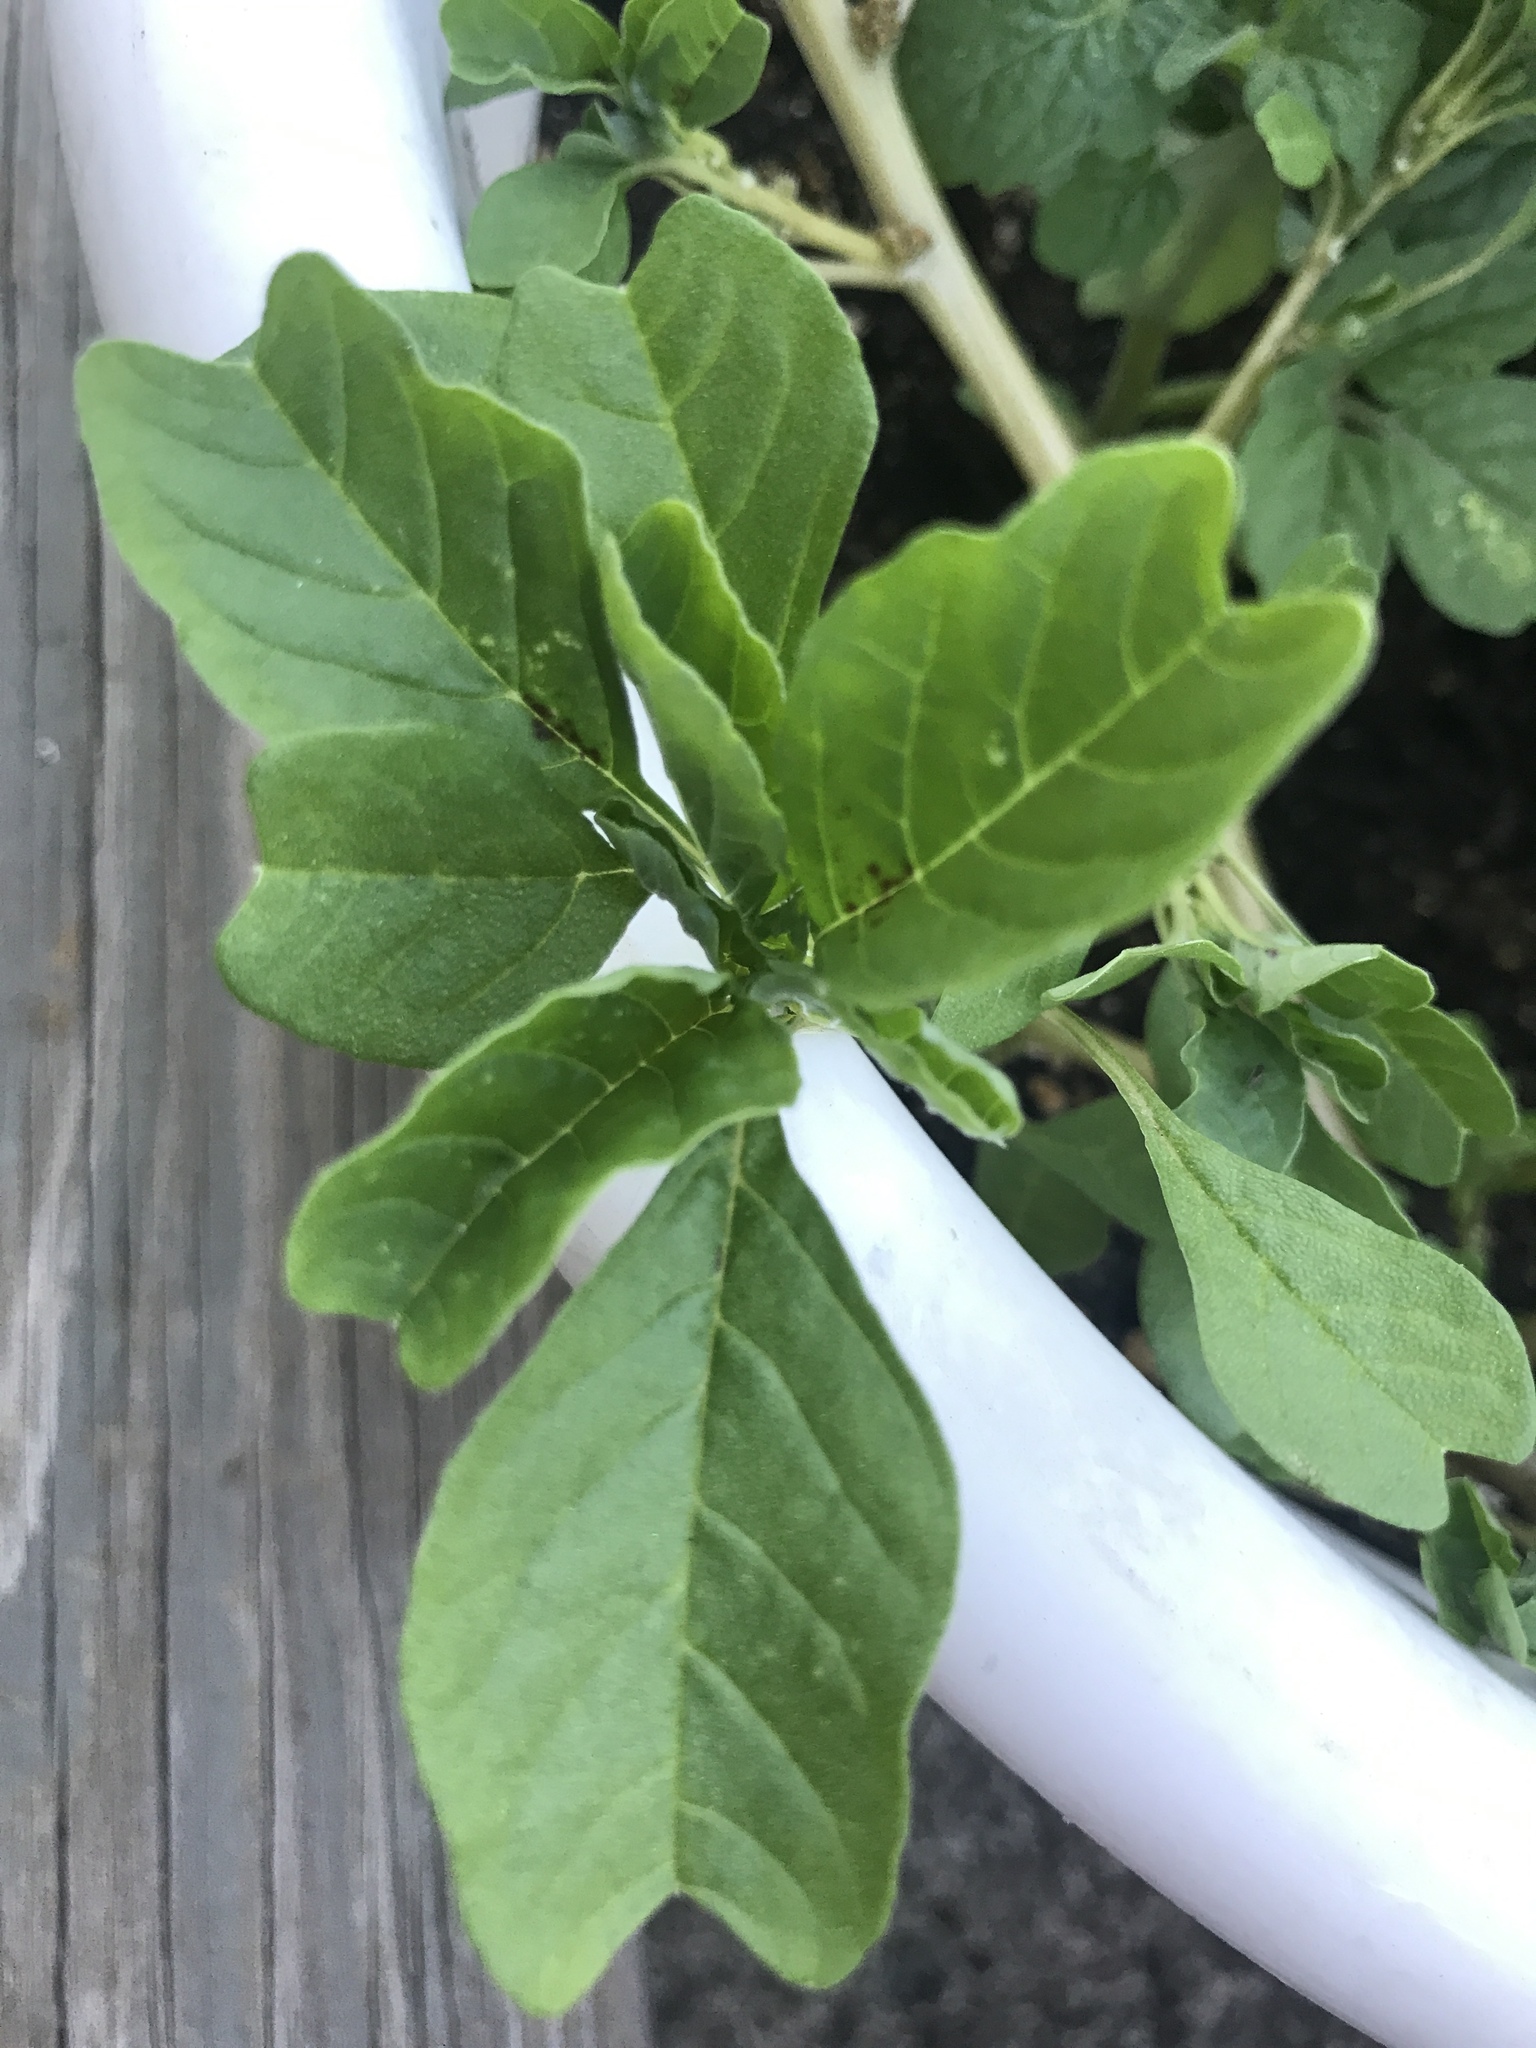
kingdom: Plantae
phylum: Tracheophyta
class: Magnoliopsida
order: Caryophyllales
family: Amaranthaceae
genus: Amaranthus
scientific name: Amaranthus blitum
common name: Purple amaranth
